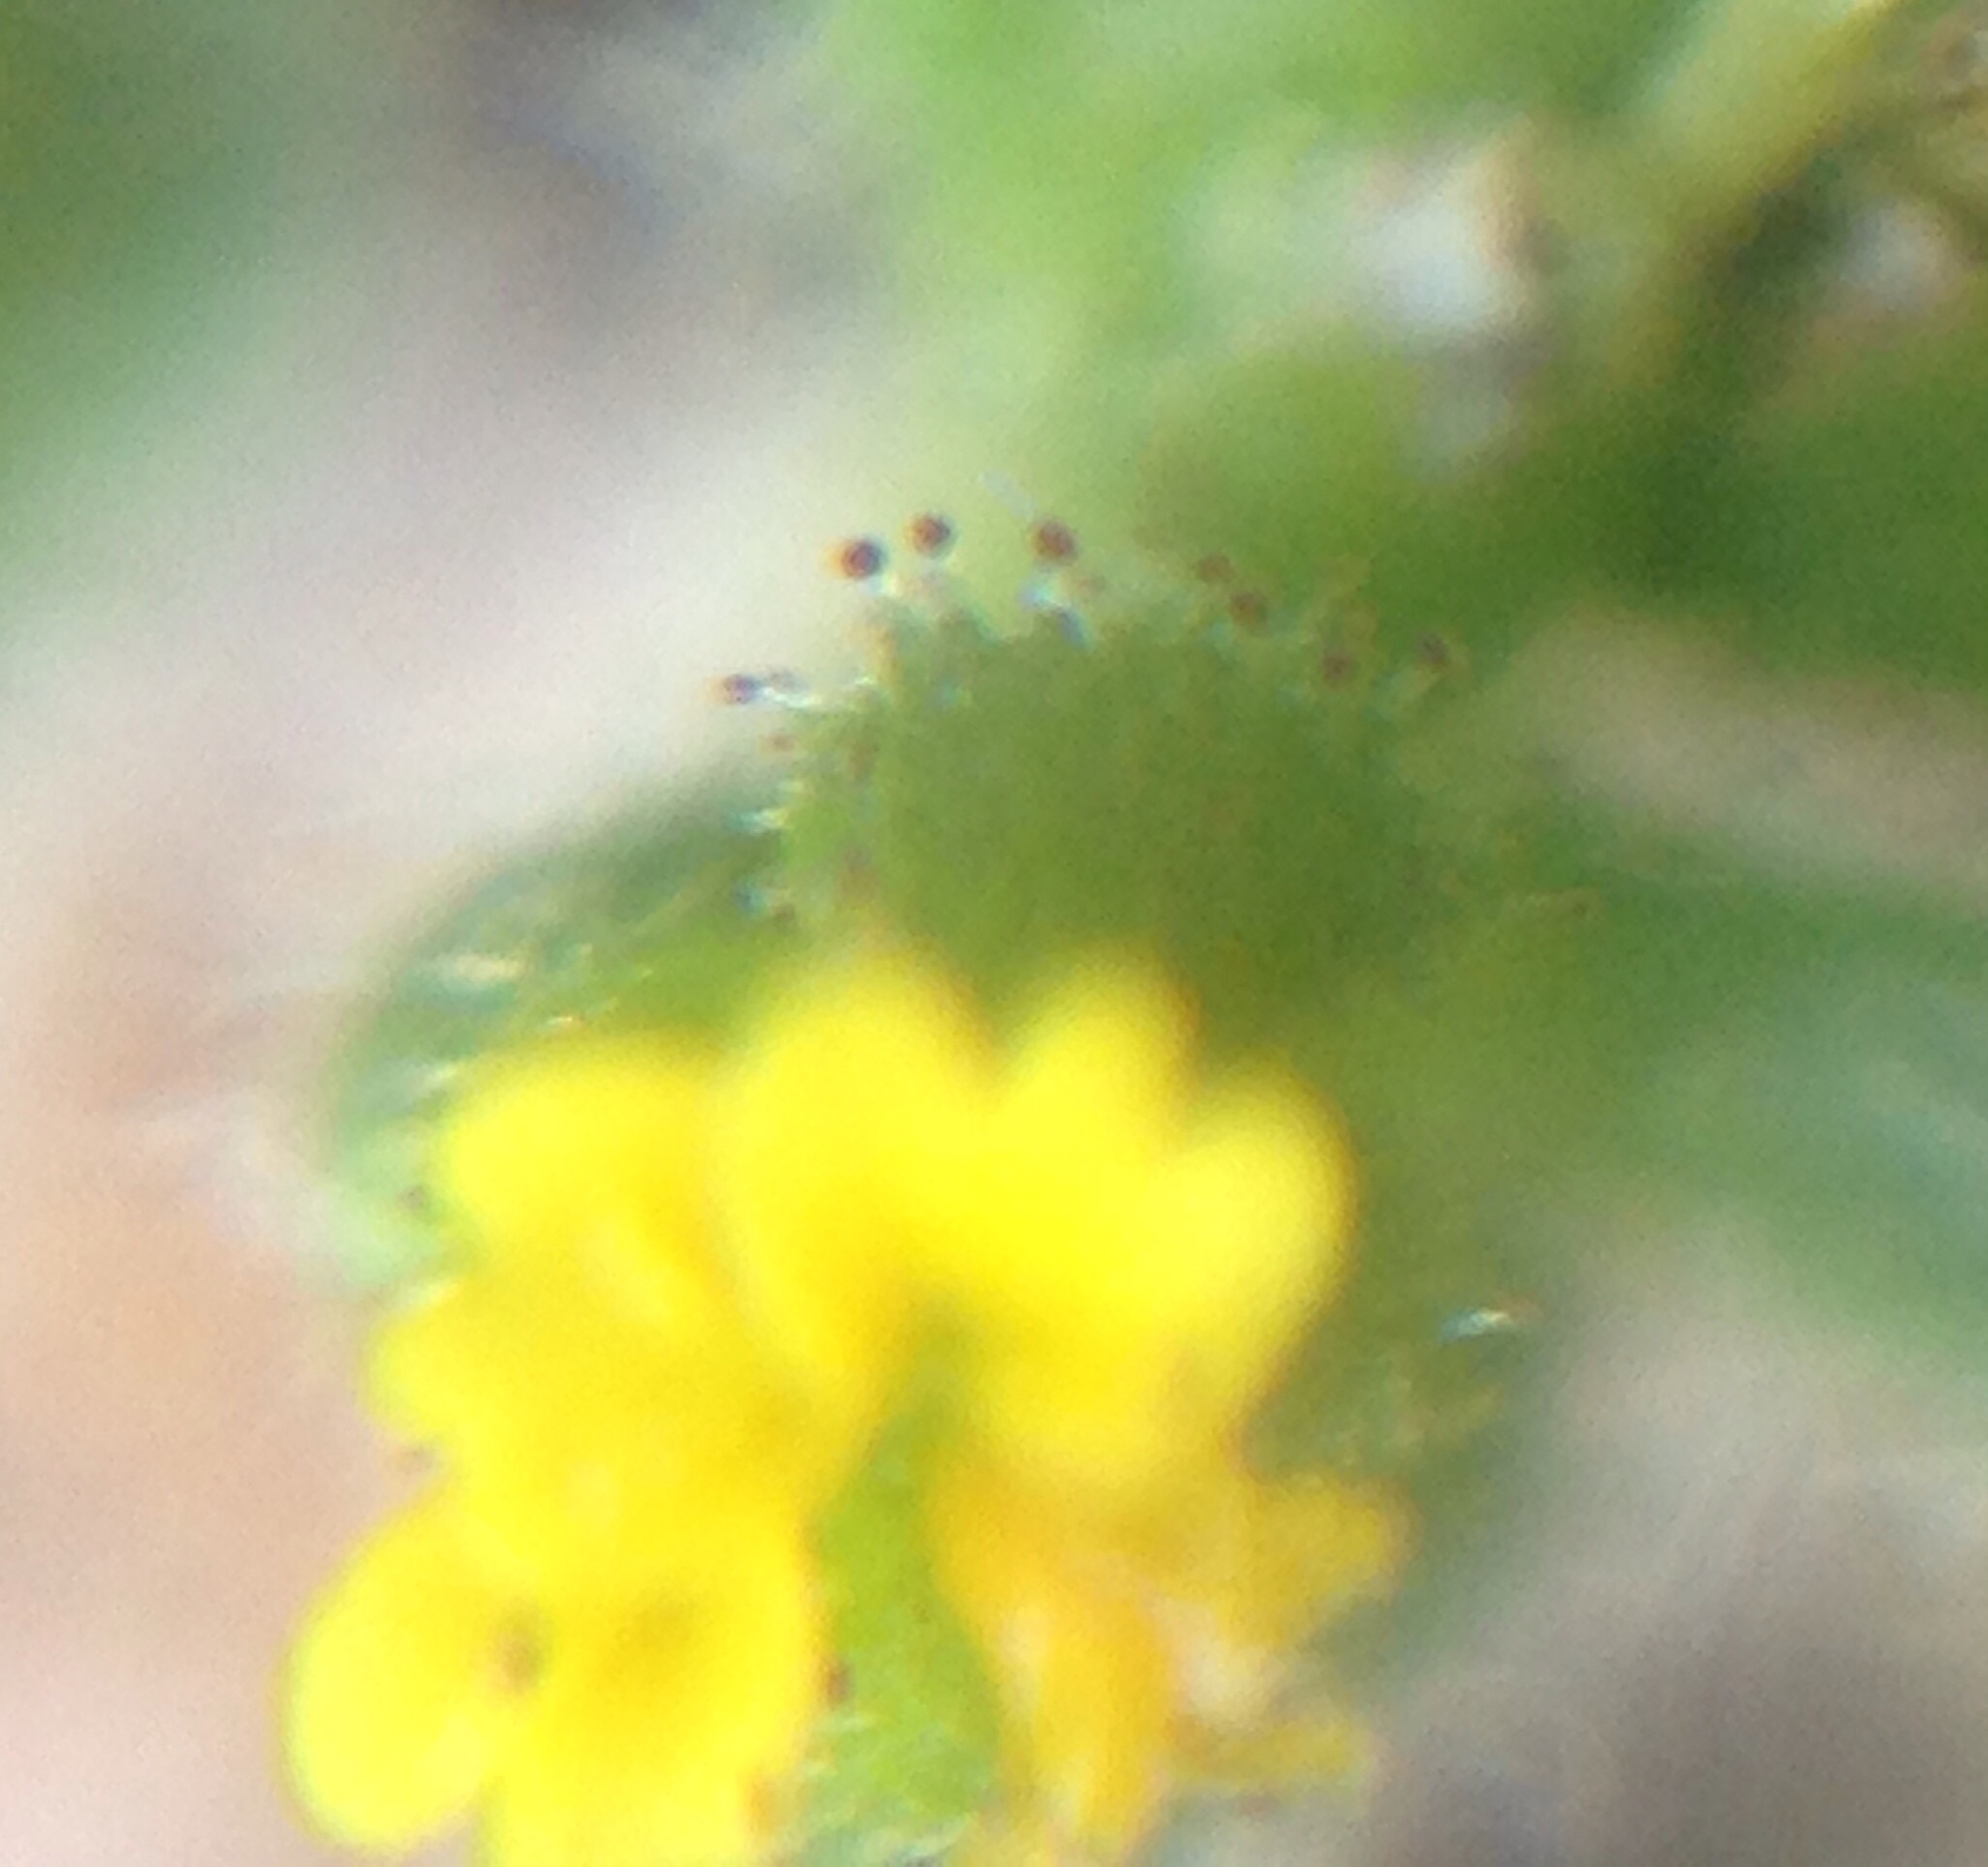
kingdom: Plantae
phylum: Tracheophyta
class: Magnoliopsida
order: Asterales
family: Asteraceae
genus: Hemizonella
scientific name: Hemizonella minima
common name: Opposite-leaved tarweed
